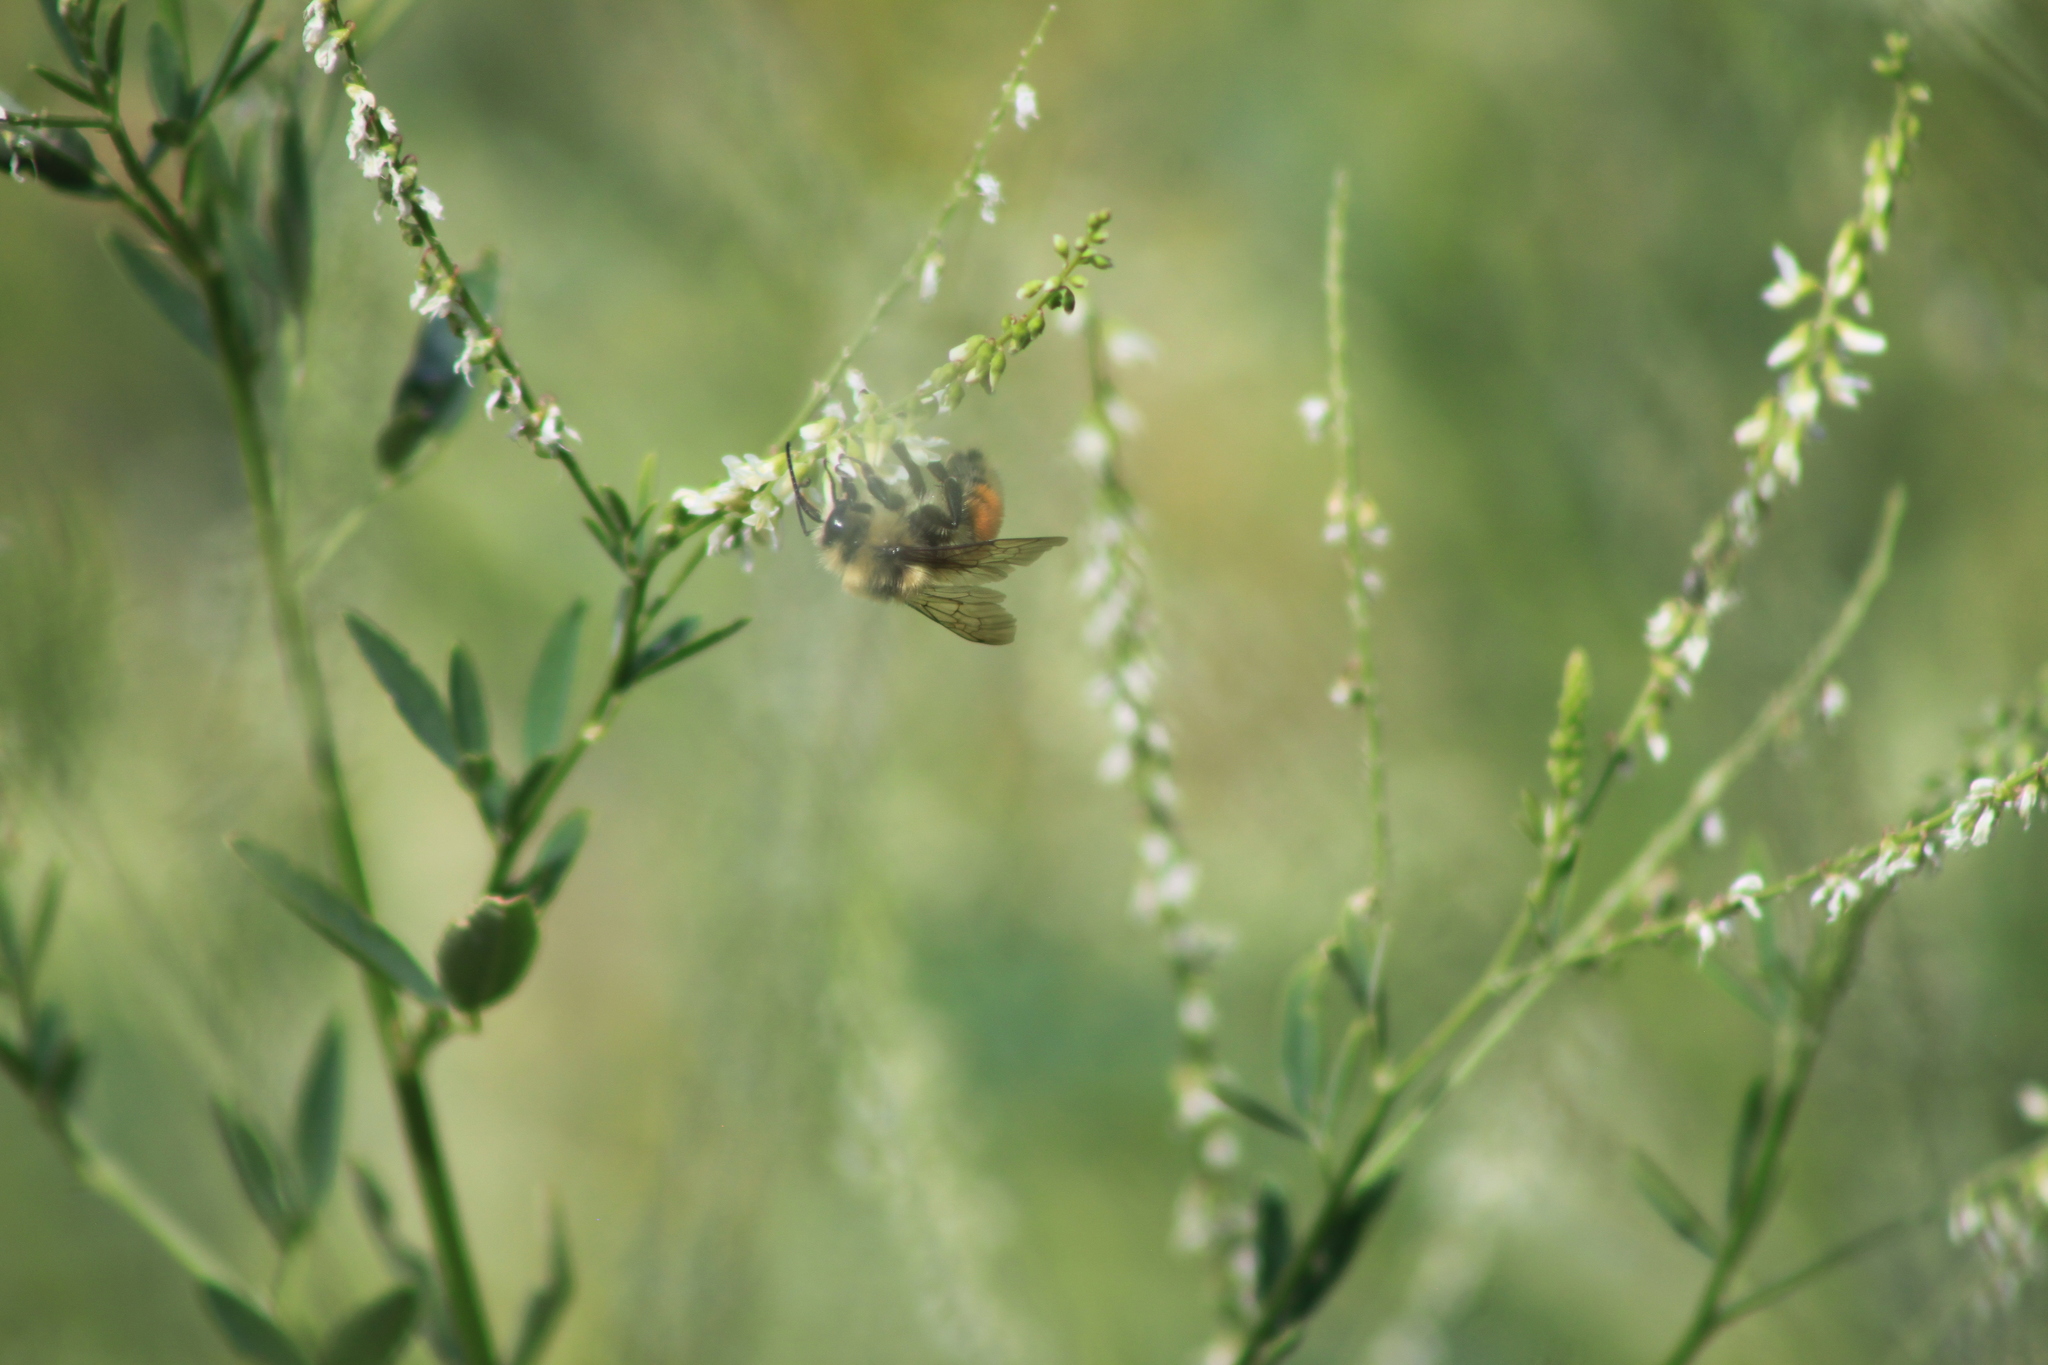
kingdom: Animalia
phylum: Arthropoda
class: Insecta
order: Hymenoptera
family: Apidae
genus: Bombus
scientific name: Bombus huntii
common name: Hunt bumble bee
